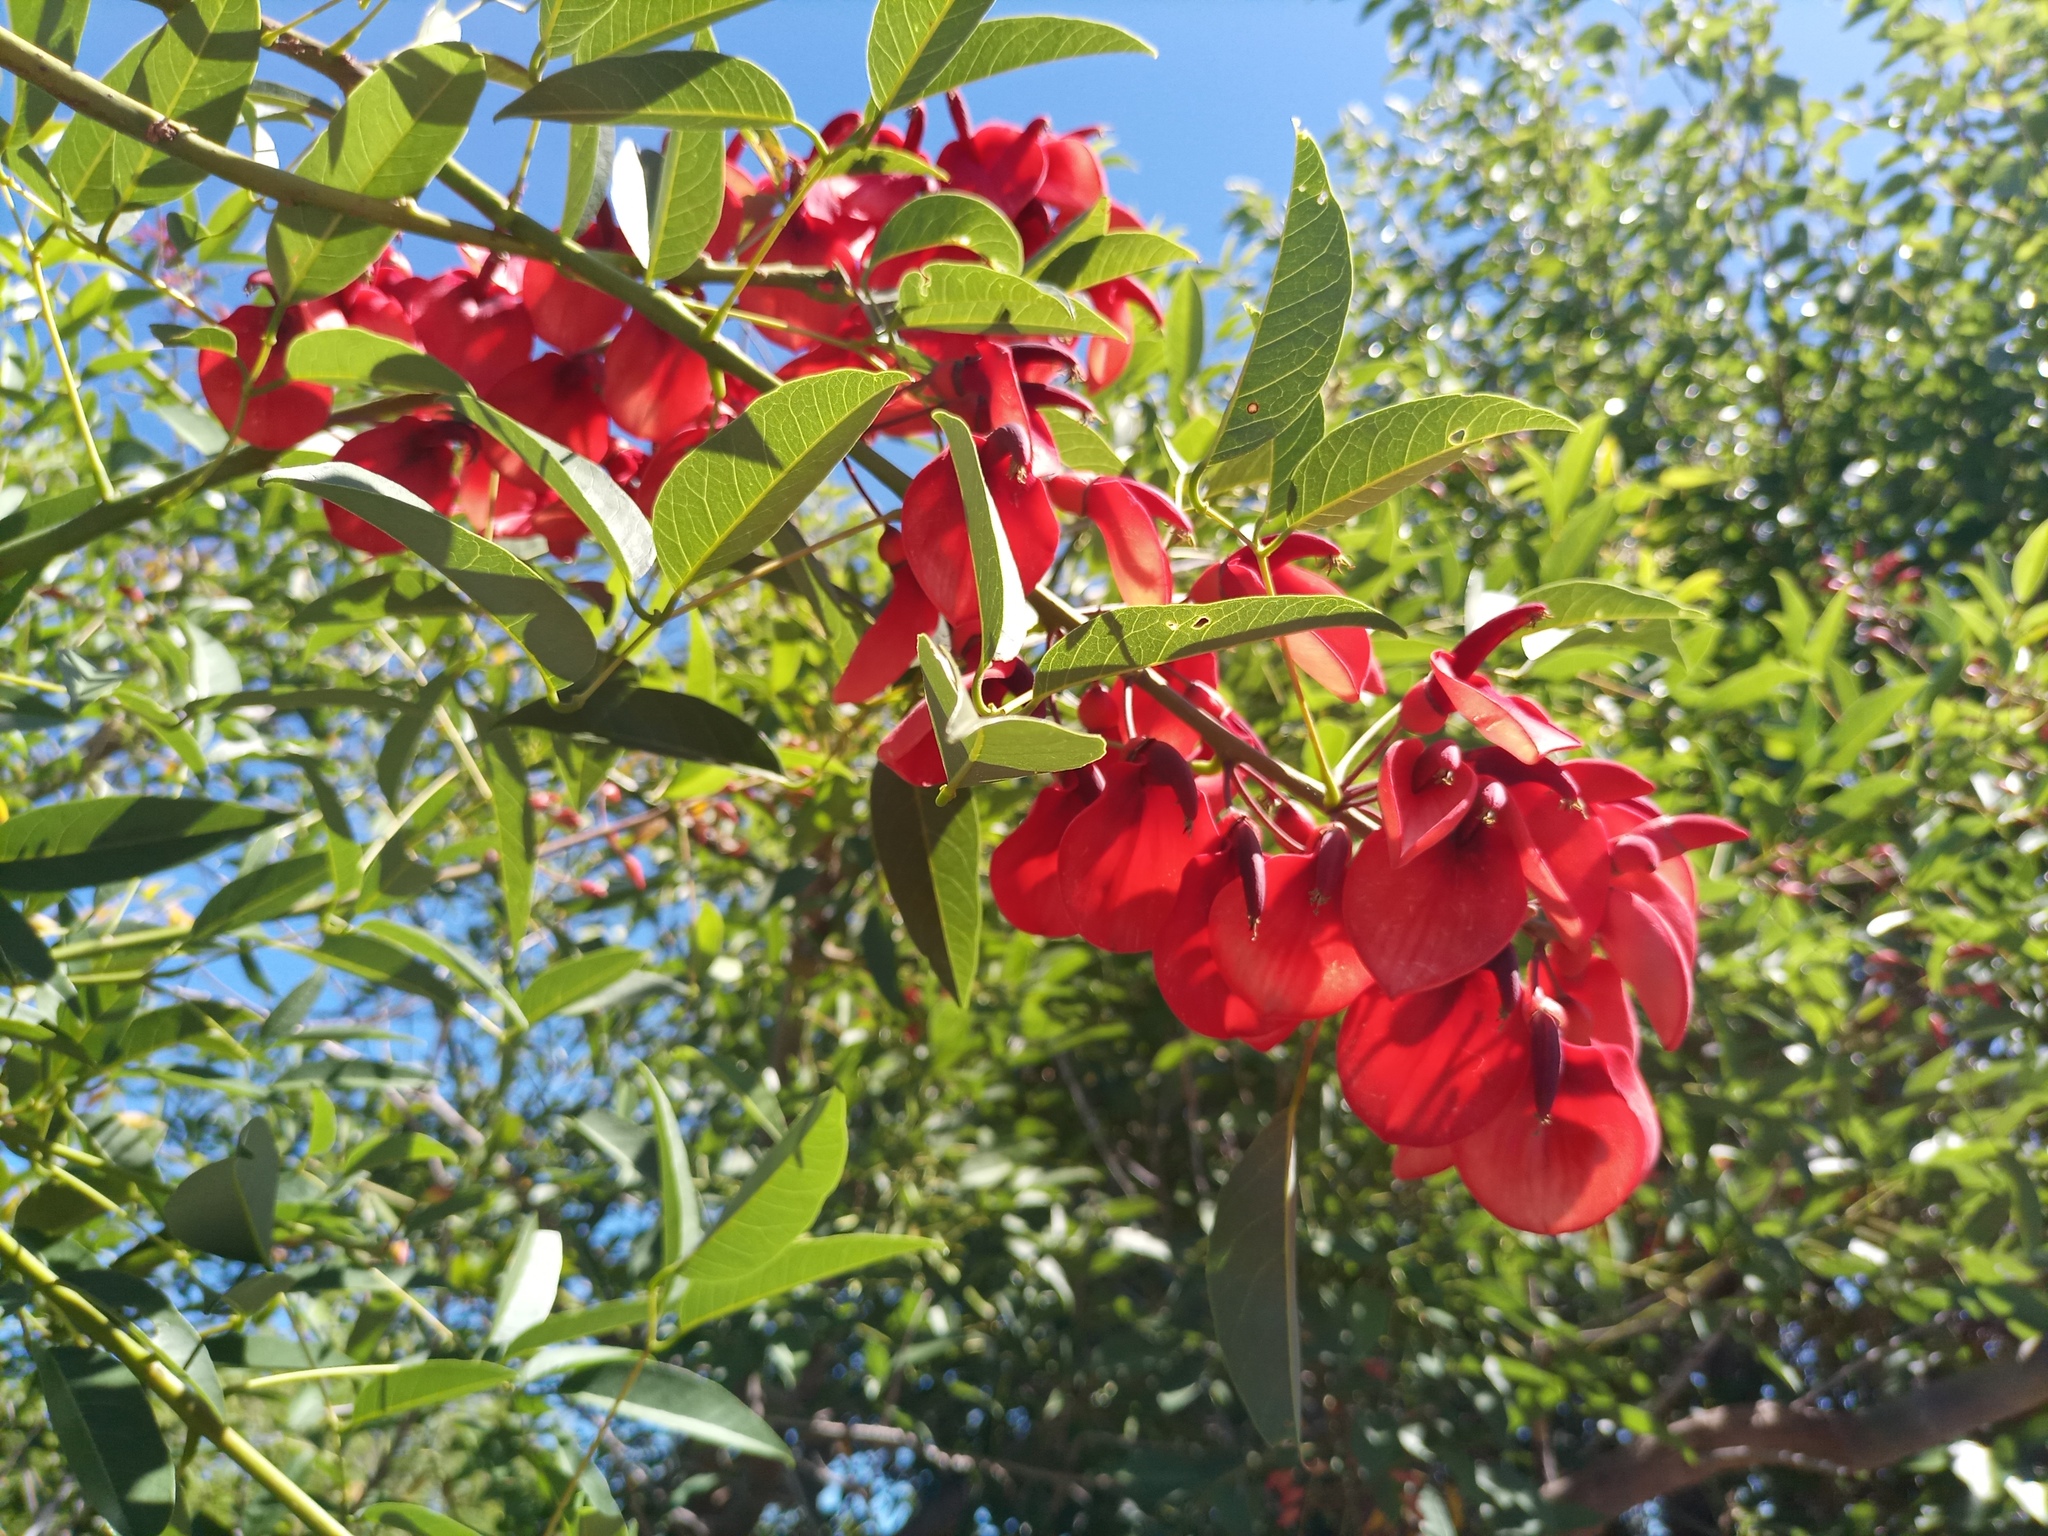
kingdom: Plantae
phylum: Tracheophyta
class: Magnoliopsida
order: Fabales
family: Fabaceae
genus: Erythrina
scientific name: Erythrina crista-galli
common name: Cockspur coral tree
